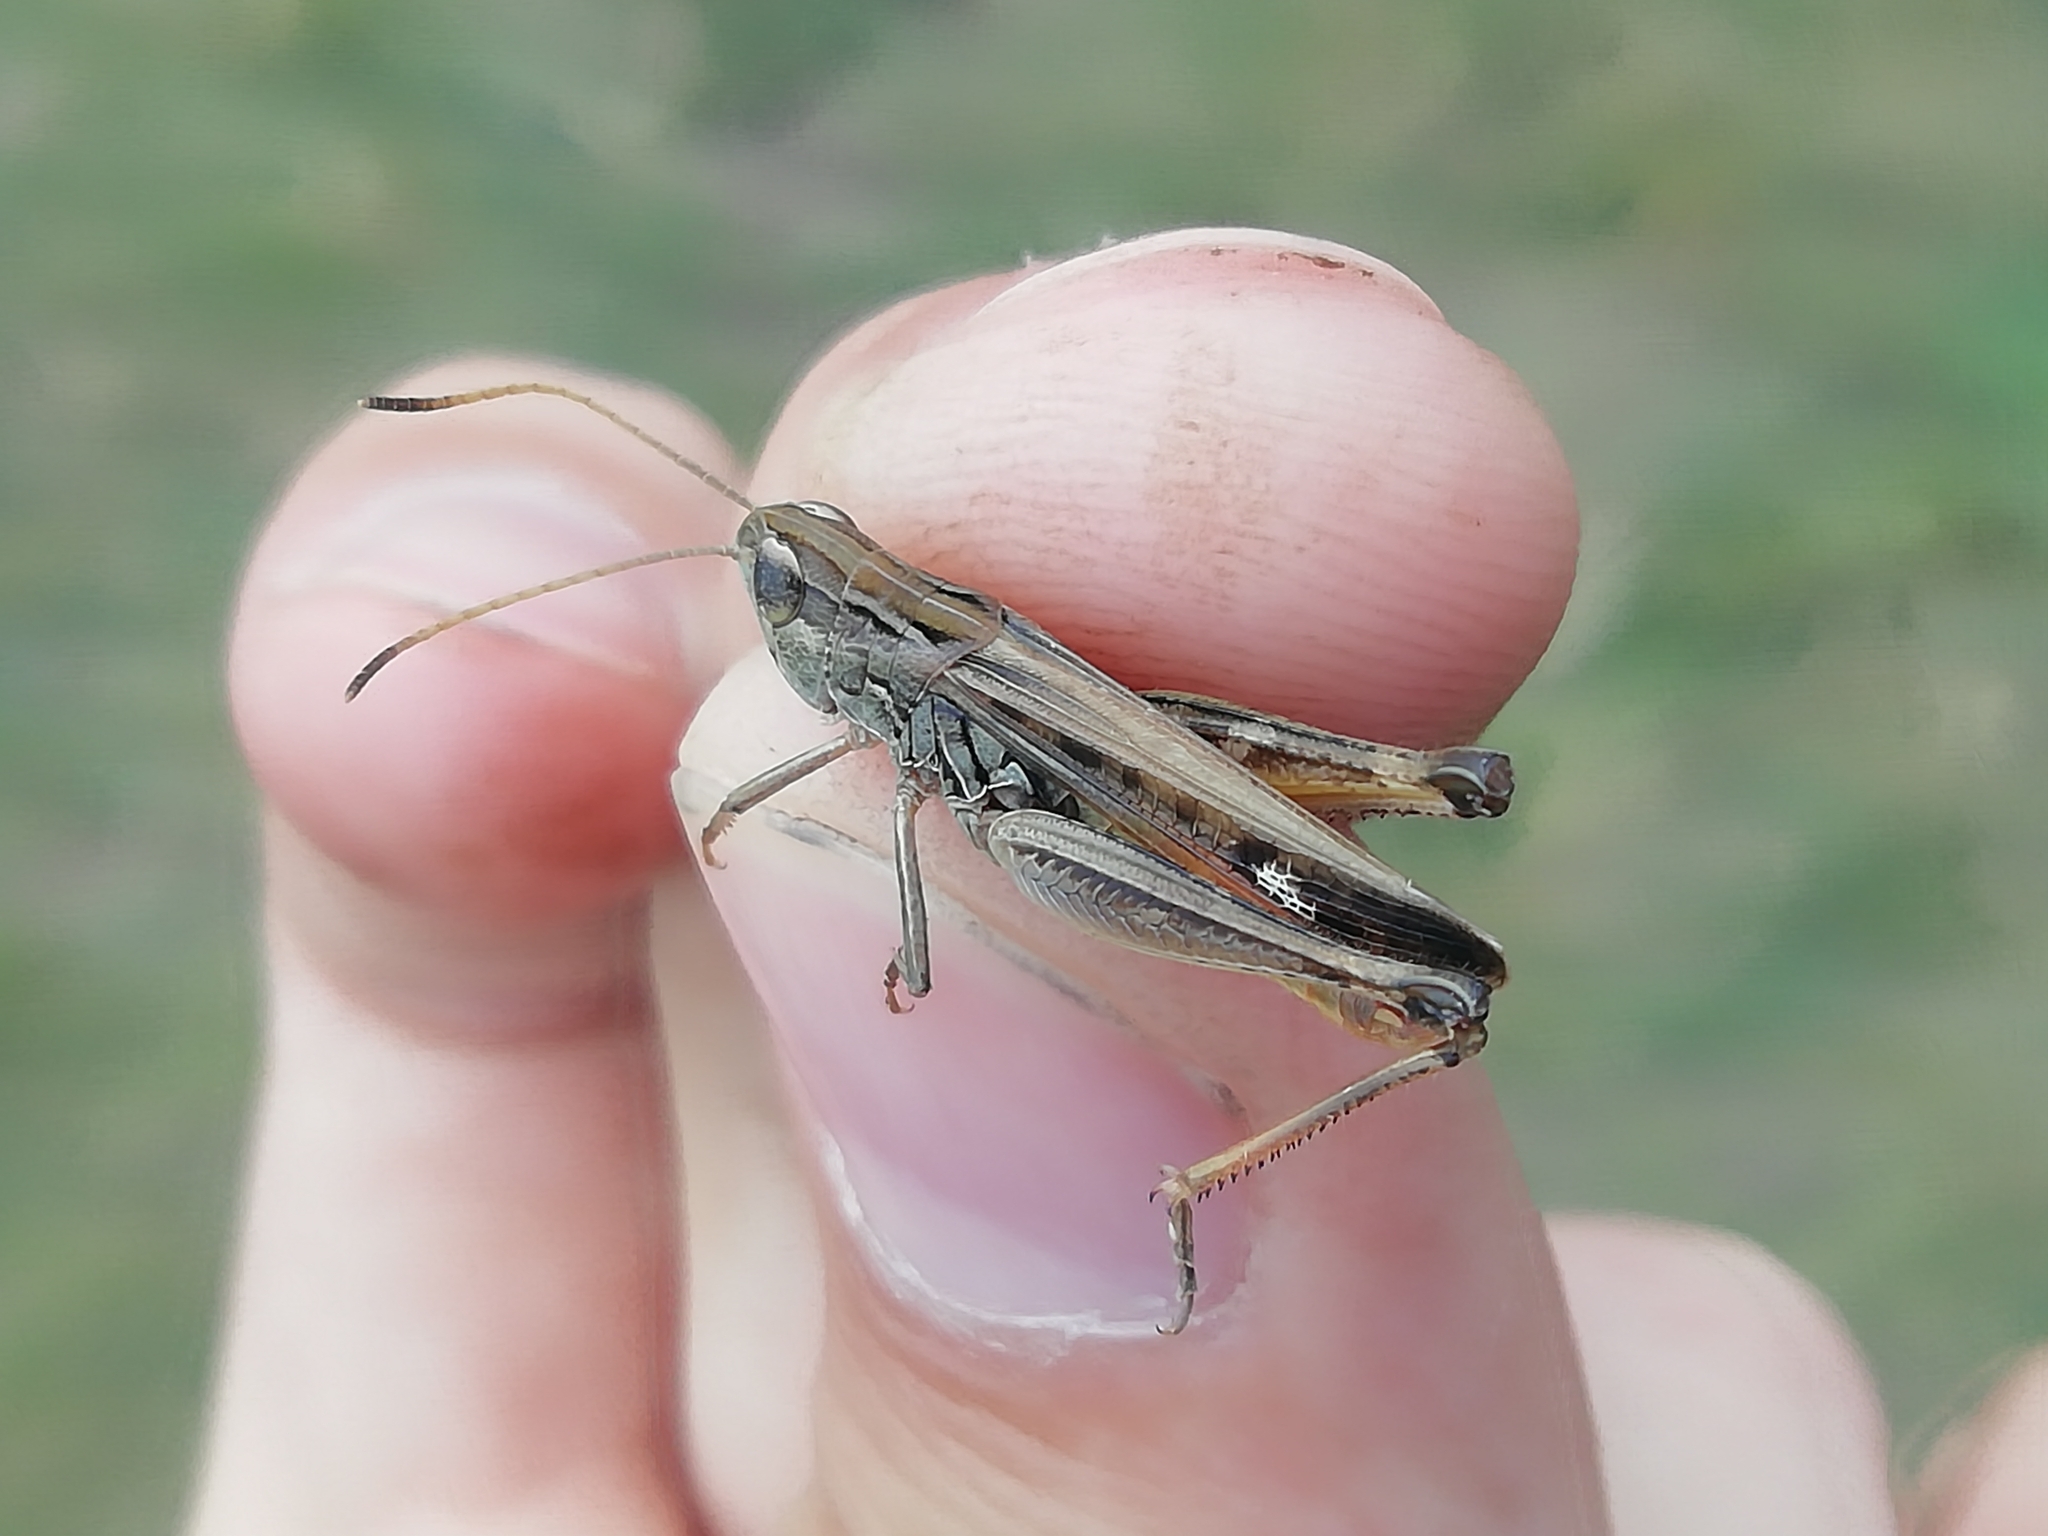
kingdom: Animalia
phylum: Arthropoda
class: Insecta
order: Orthoptera
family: Acrididae
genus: Stenobothrus
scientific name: Stenobothrus eurasius
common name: Eurasian toothed grasshopper
